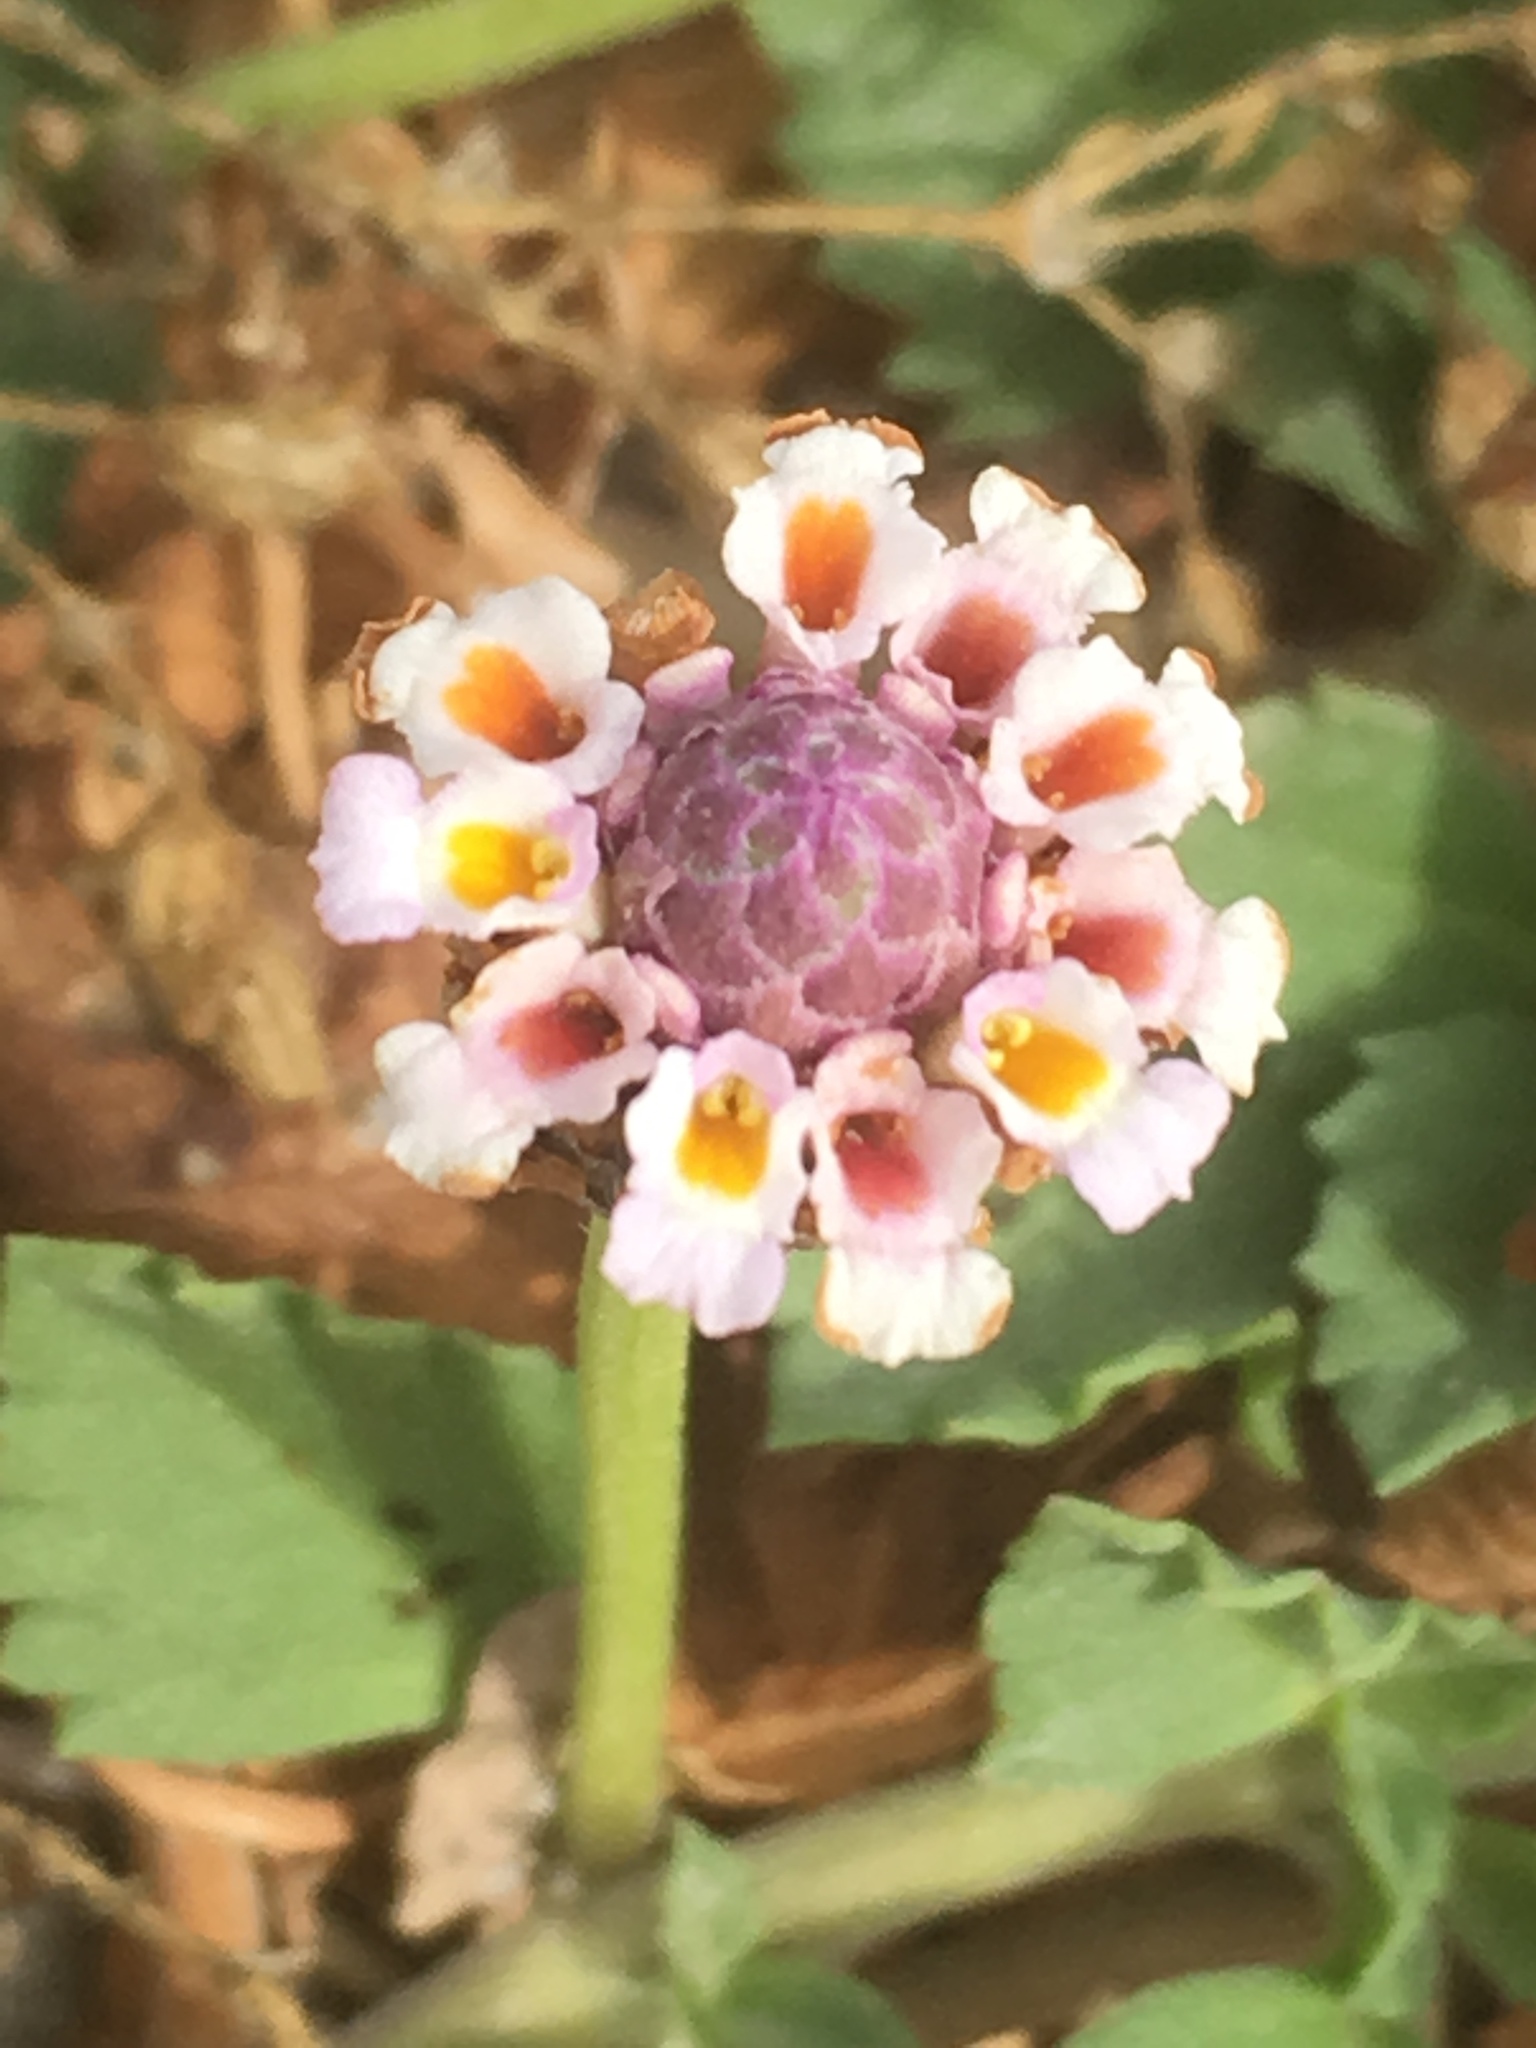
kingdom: Plantae
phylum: Tracheophyta
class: Magnoliopsida
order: Lamiales
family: Verbenaceae
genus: Phyla
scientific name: Phyla nodiflora
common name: Frogfruit
